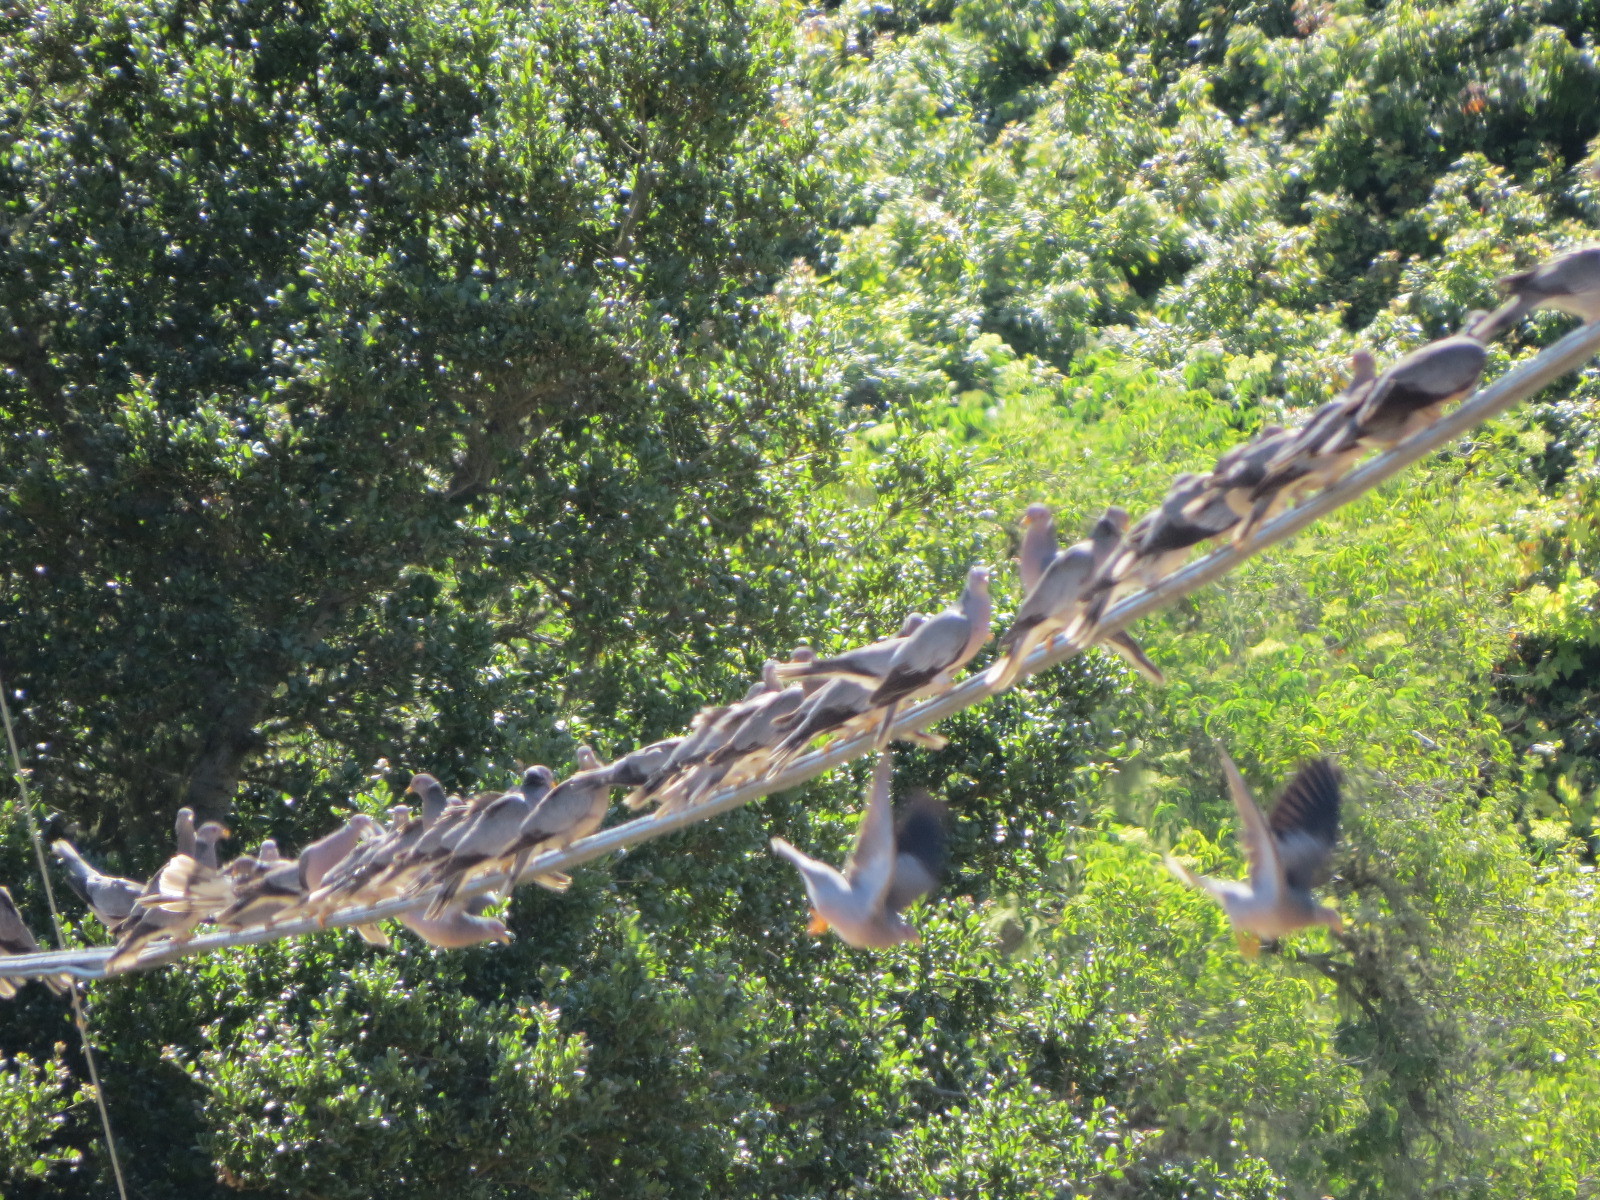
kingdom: Animalia
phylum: Chordata
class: Aves
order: Columbiformes
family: Columbidae
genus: Patagioenas
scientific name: Patagioenas fasciata
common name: Band-tailed pigeon
